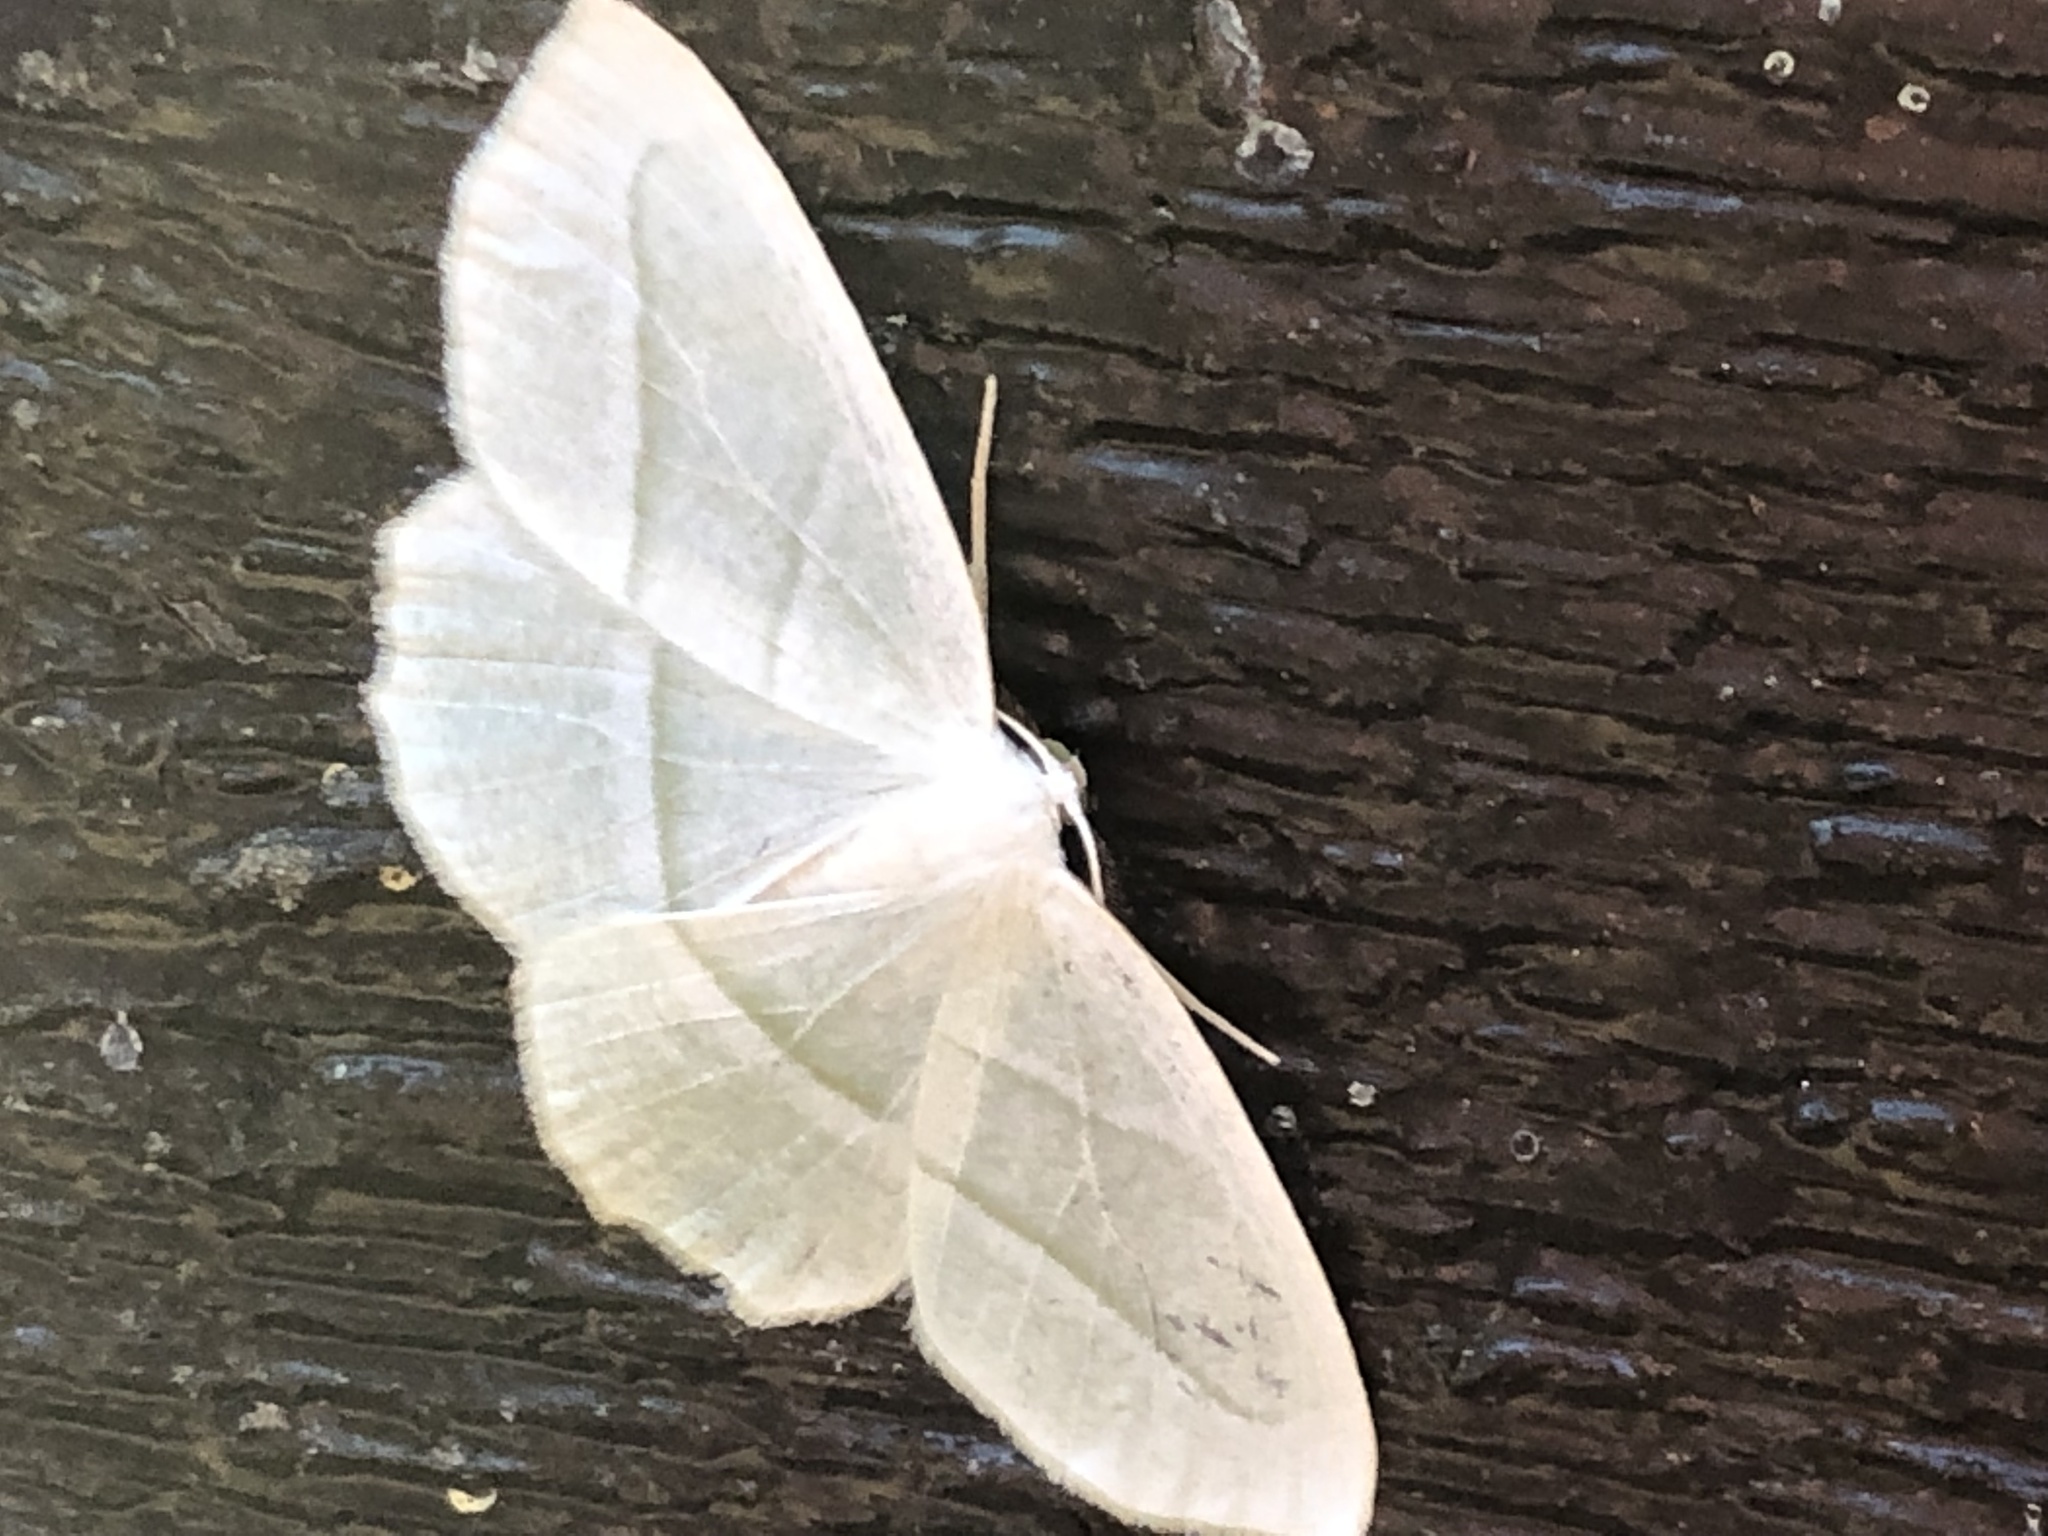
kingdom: Animalia
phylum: Arthropoda
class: Insecta
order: Lepidoptera
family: Geometridae
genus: Campaea
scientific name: Campaea perlata
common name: Fringed looper
